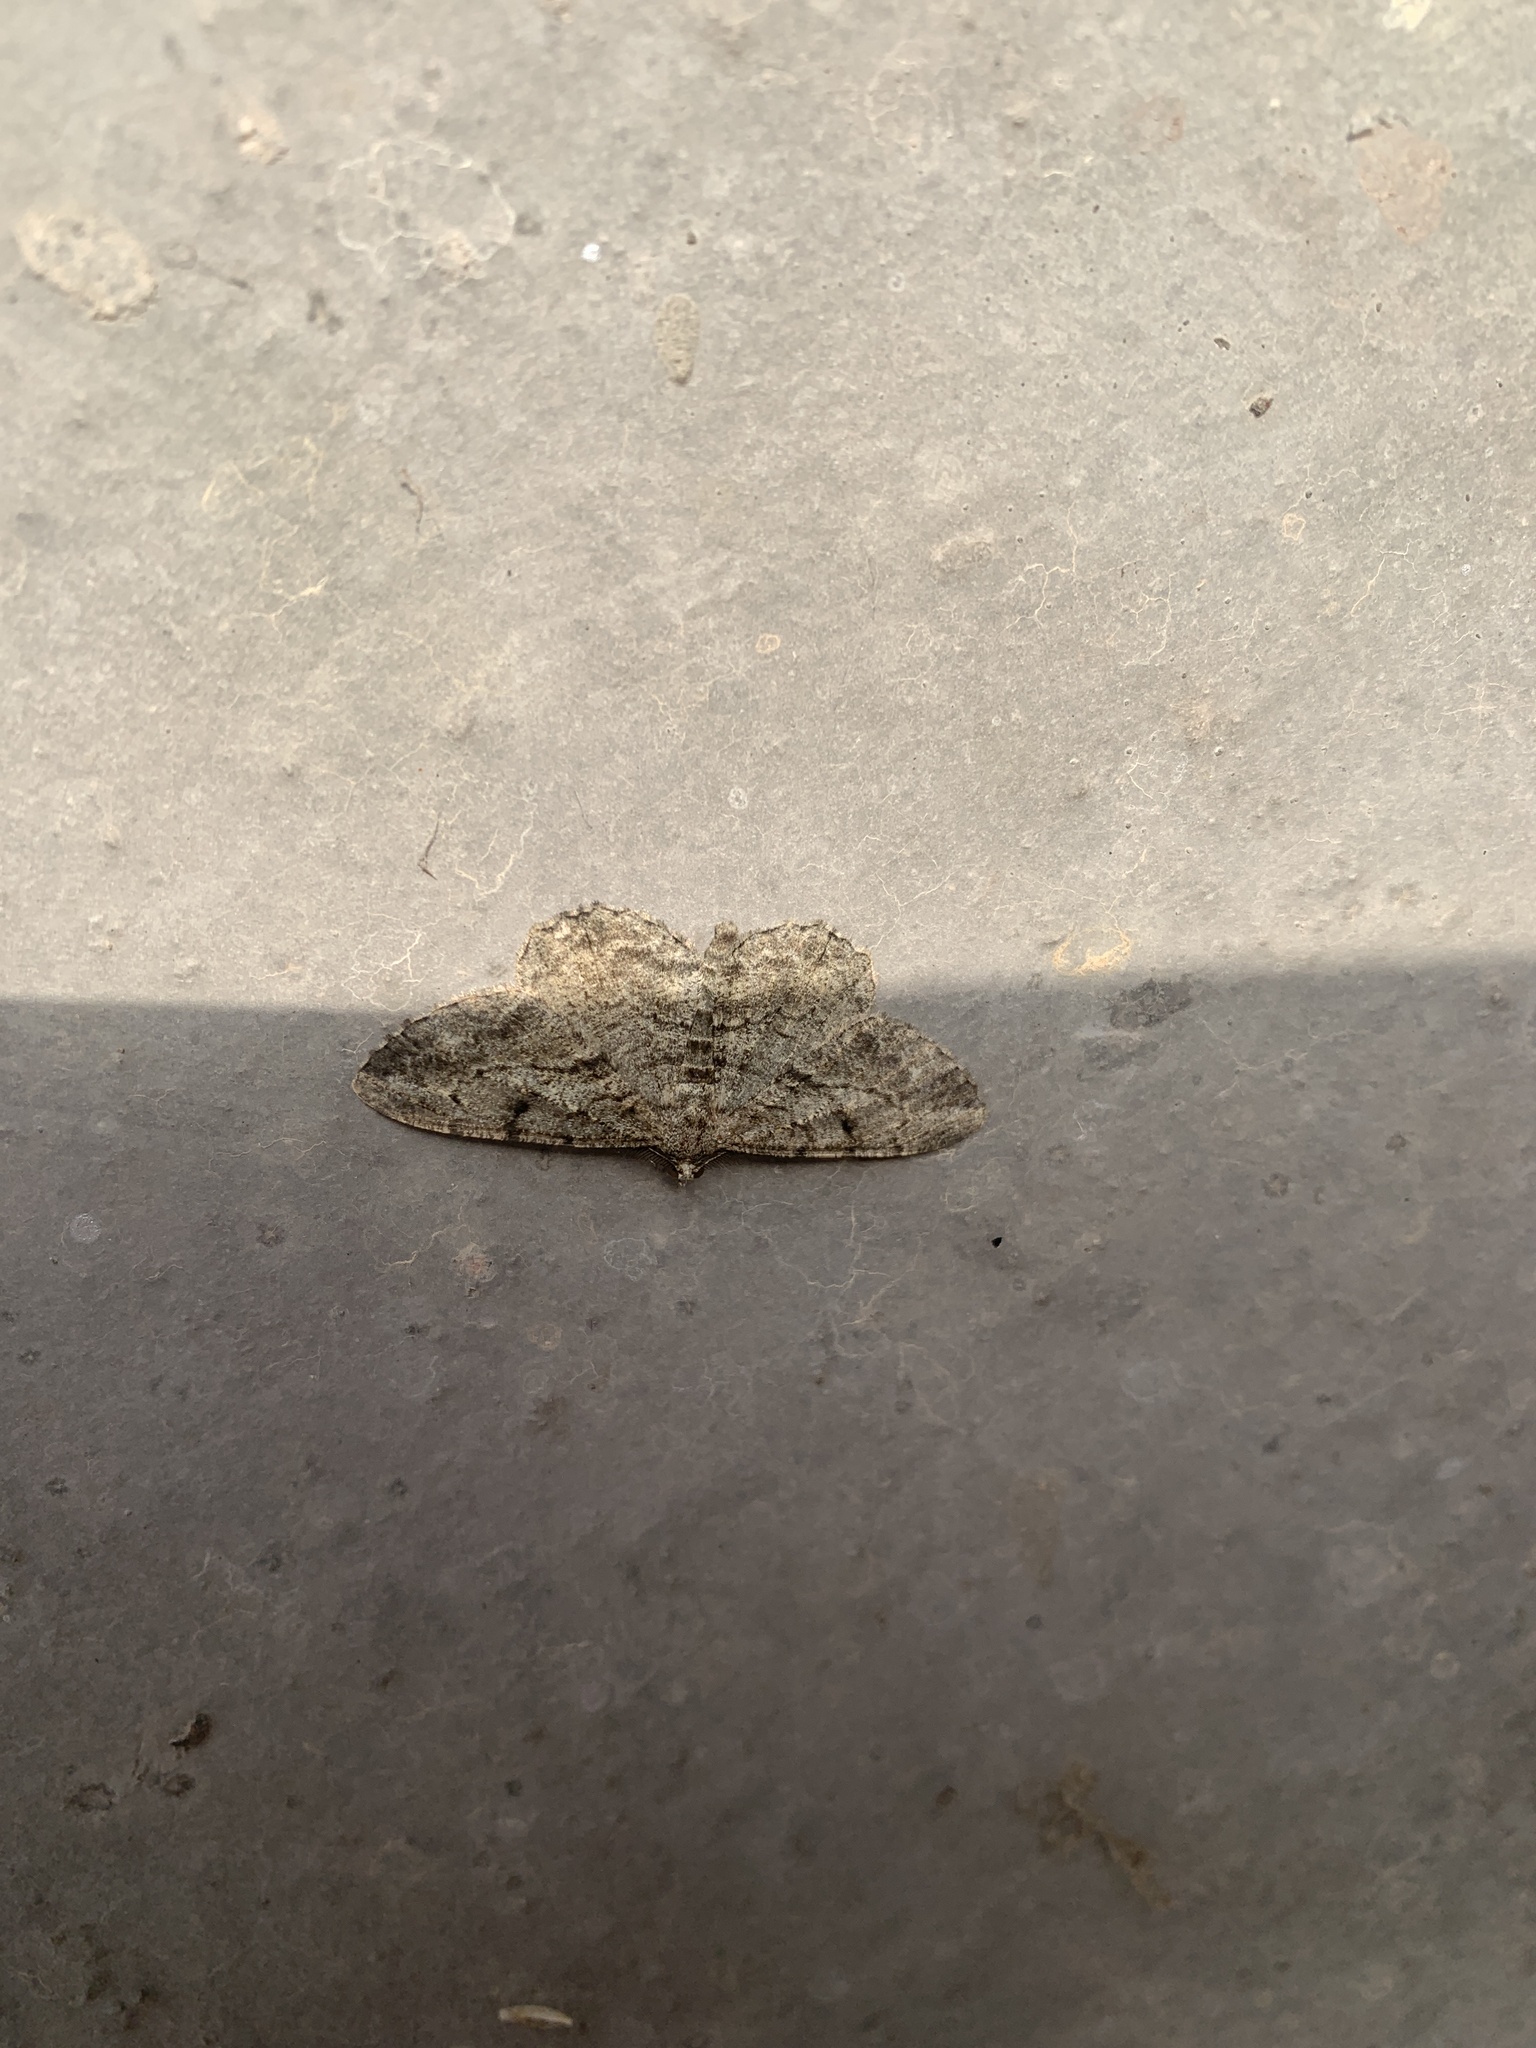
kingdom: Animalia
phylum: Arthropoda
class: Insecta
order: Lepidoptera
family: Geometridae
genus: Peribatodes
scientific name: Peribatodes rhomboidaria
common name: Willow beauty
